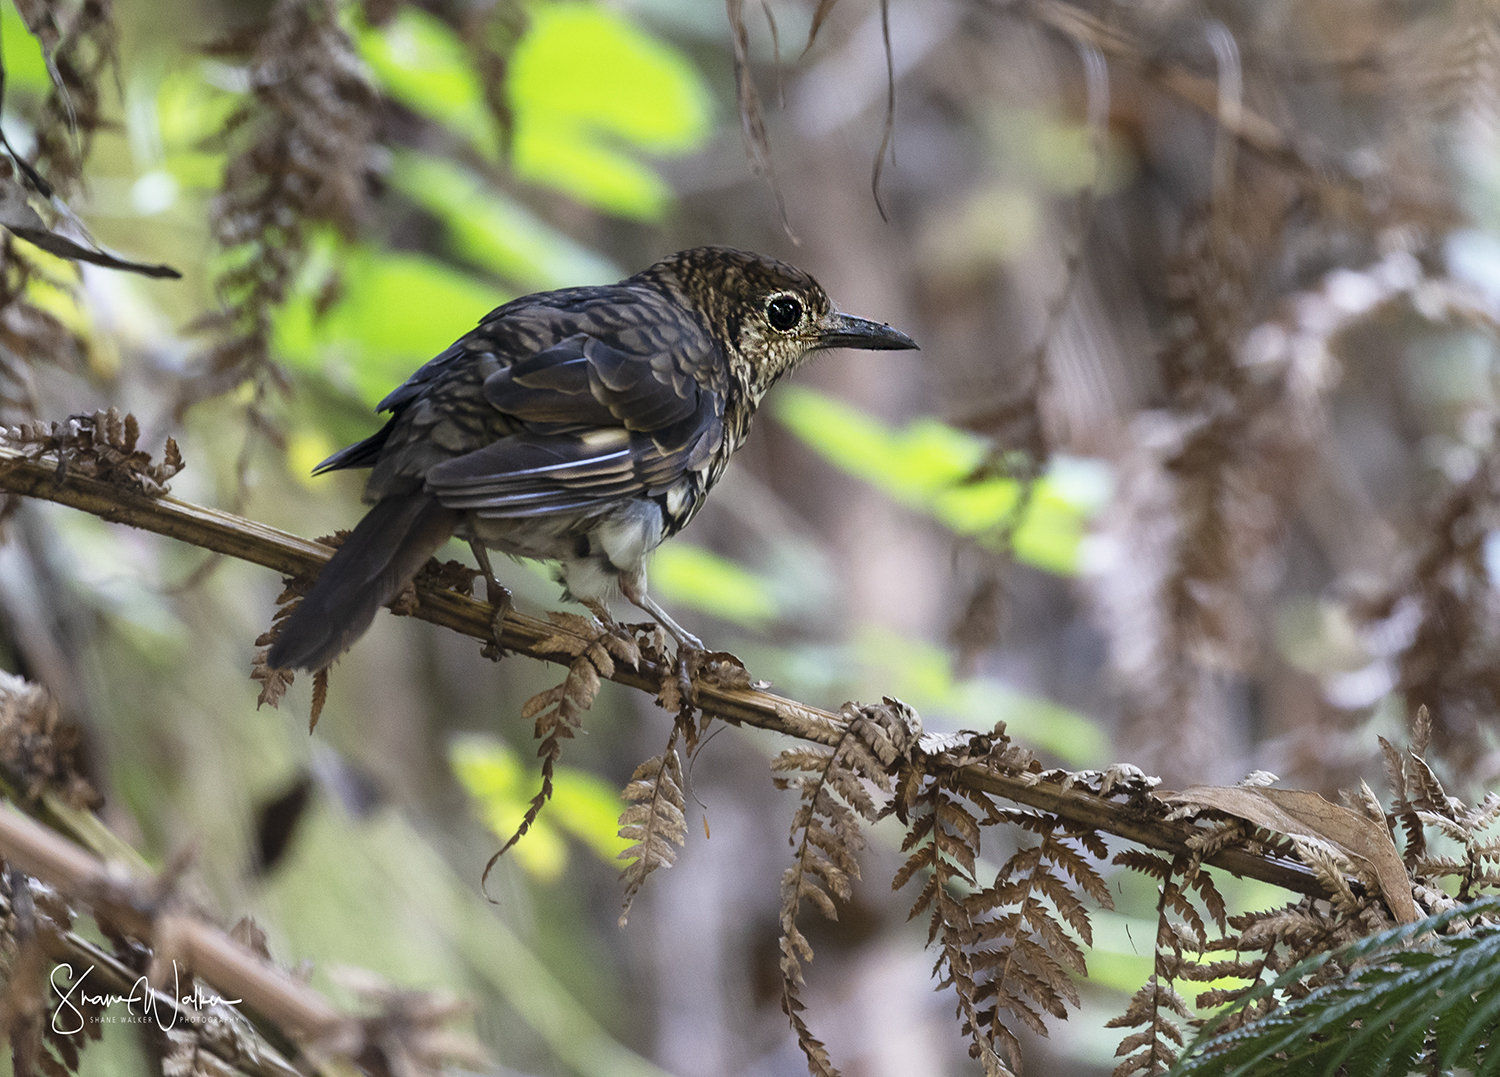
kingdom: Animalia
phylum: Chordata
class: Aves
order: Passeriformes
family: Turdidae
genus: Zoothera
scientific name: Zoothera lunulata
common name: Bassian thrush
